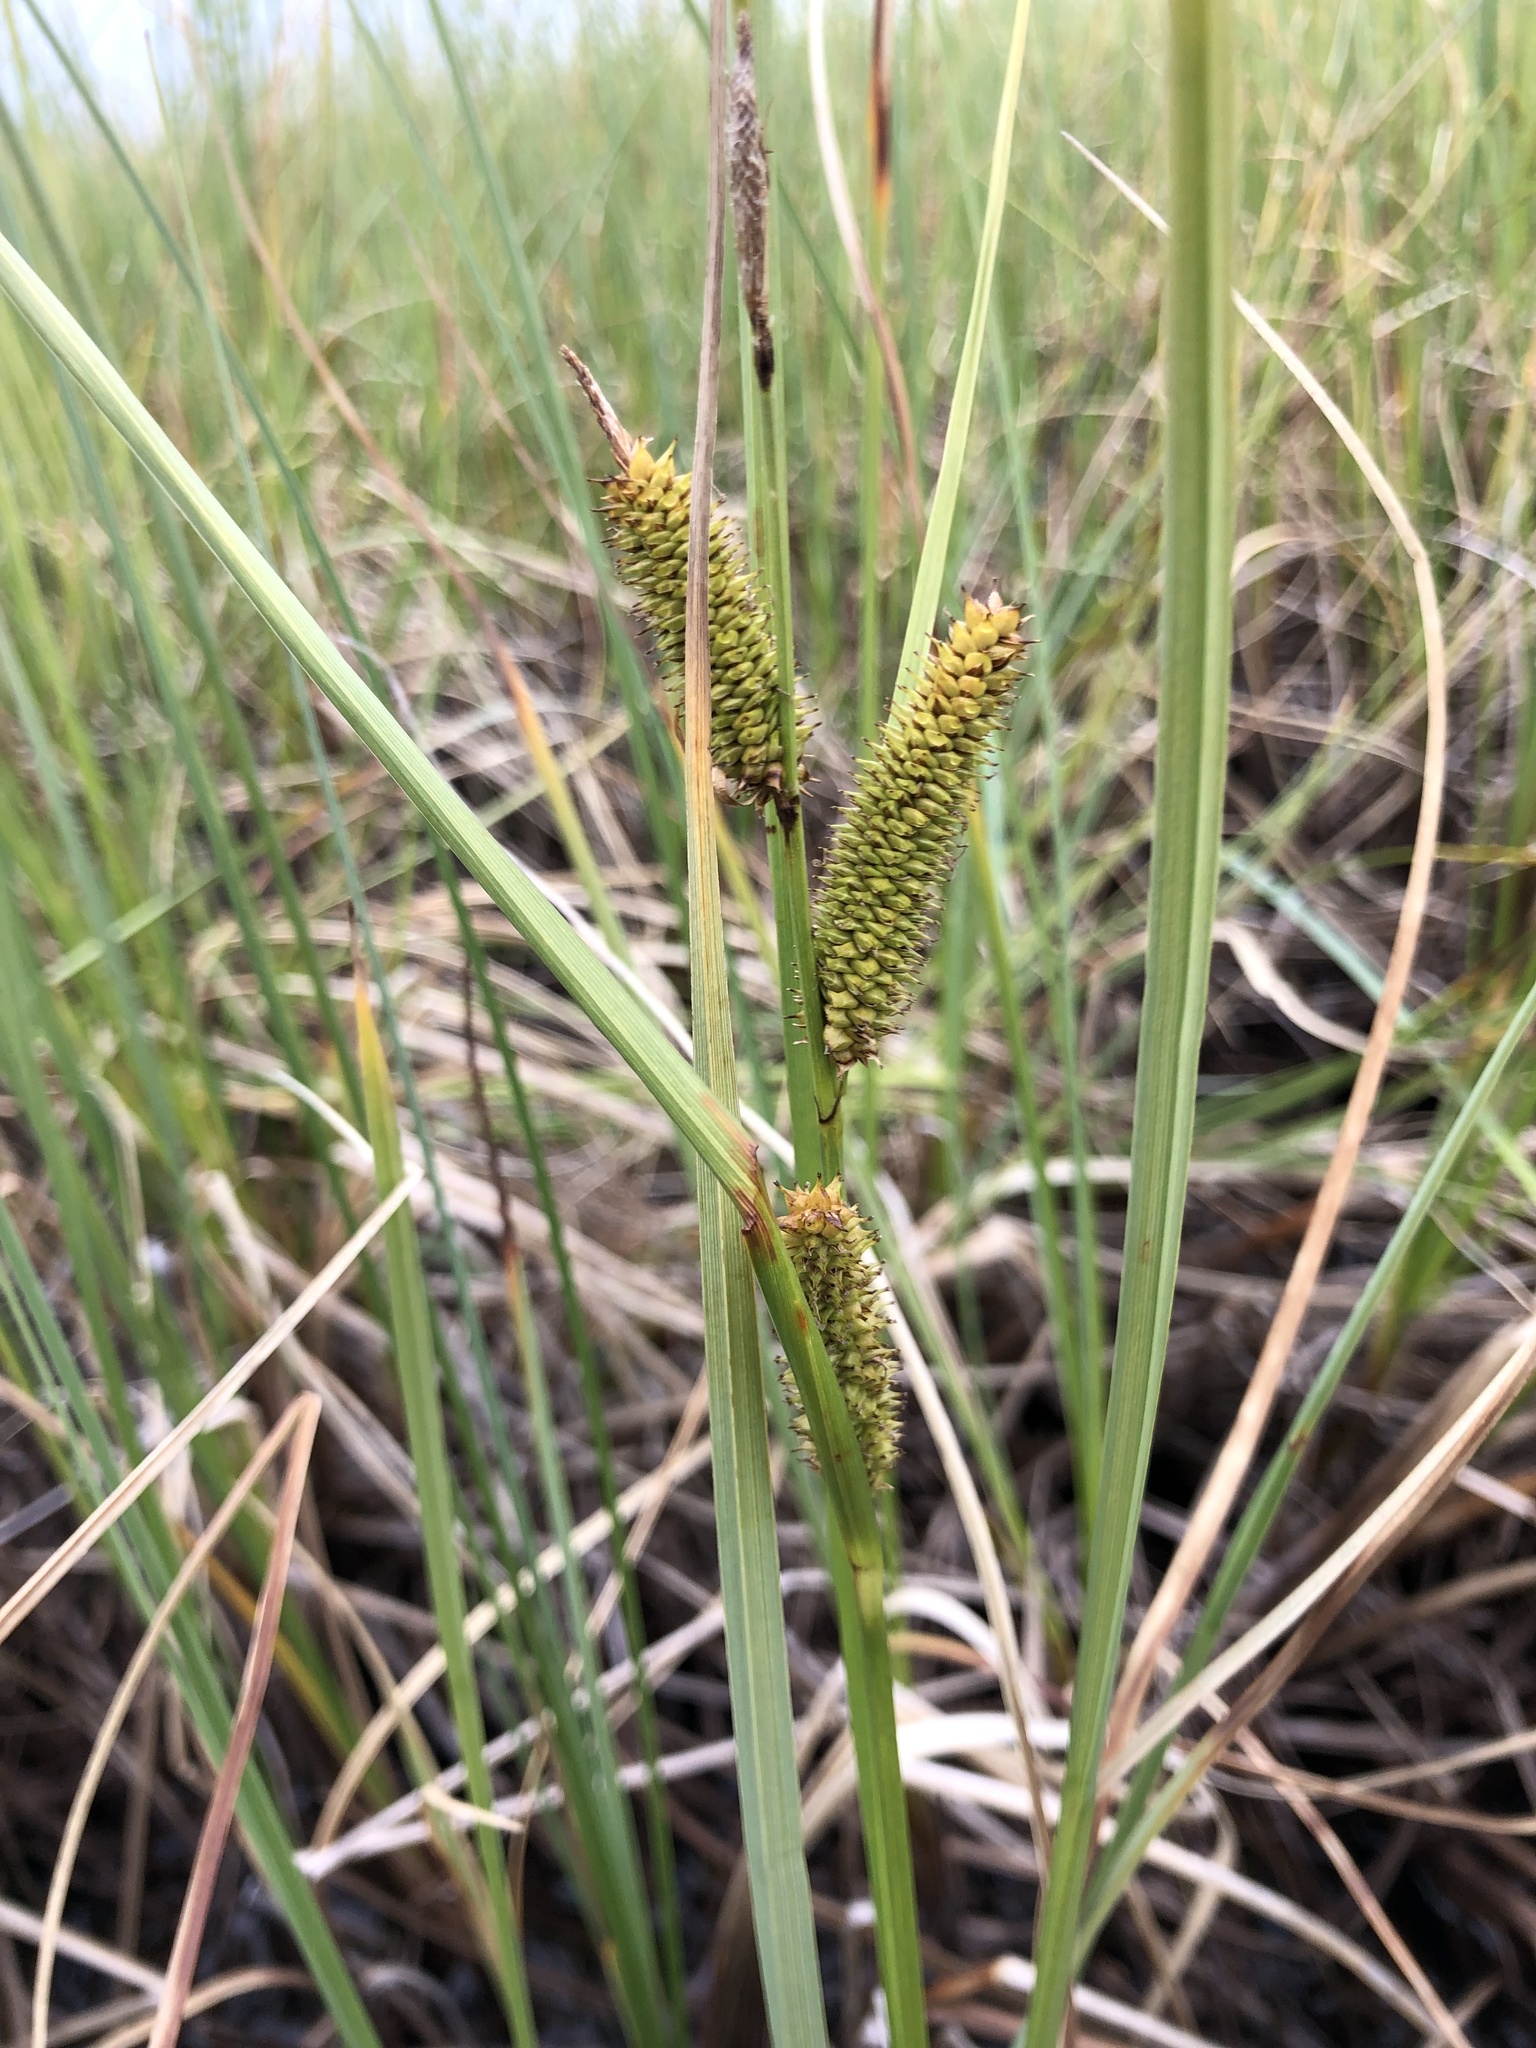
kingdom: Plantae
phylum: Tracheophyta
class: Liliopsida
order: Poales
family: Cyperaceae
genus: Carex
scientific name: Carex rostrata
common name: Bottle sedge
